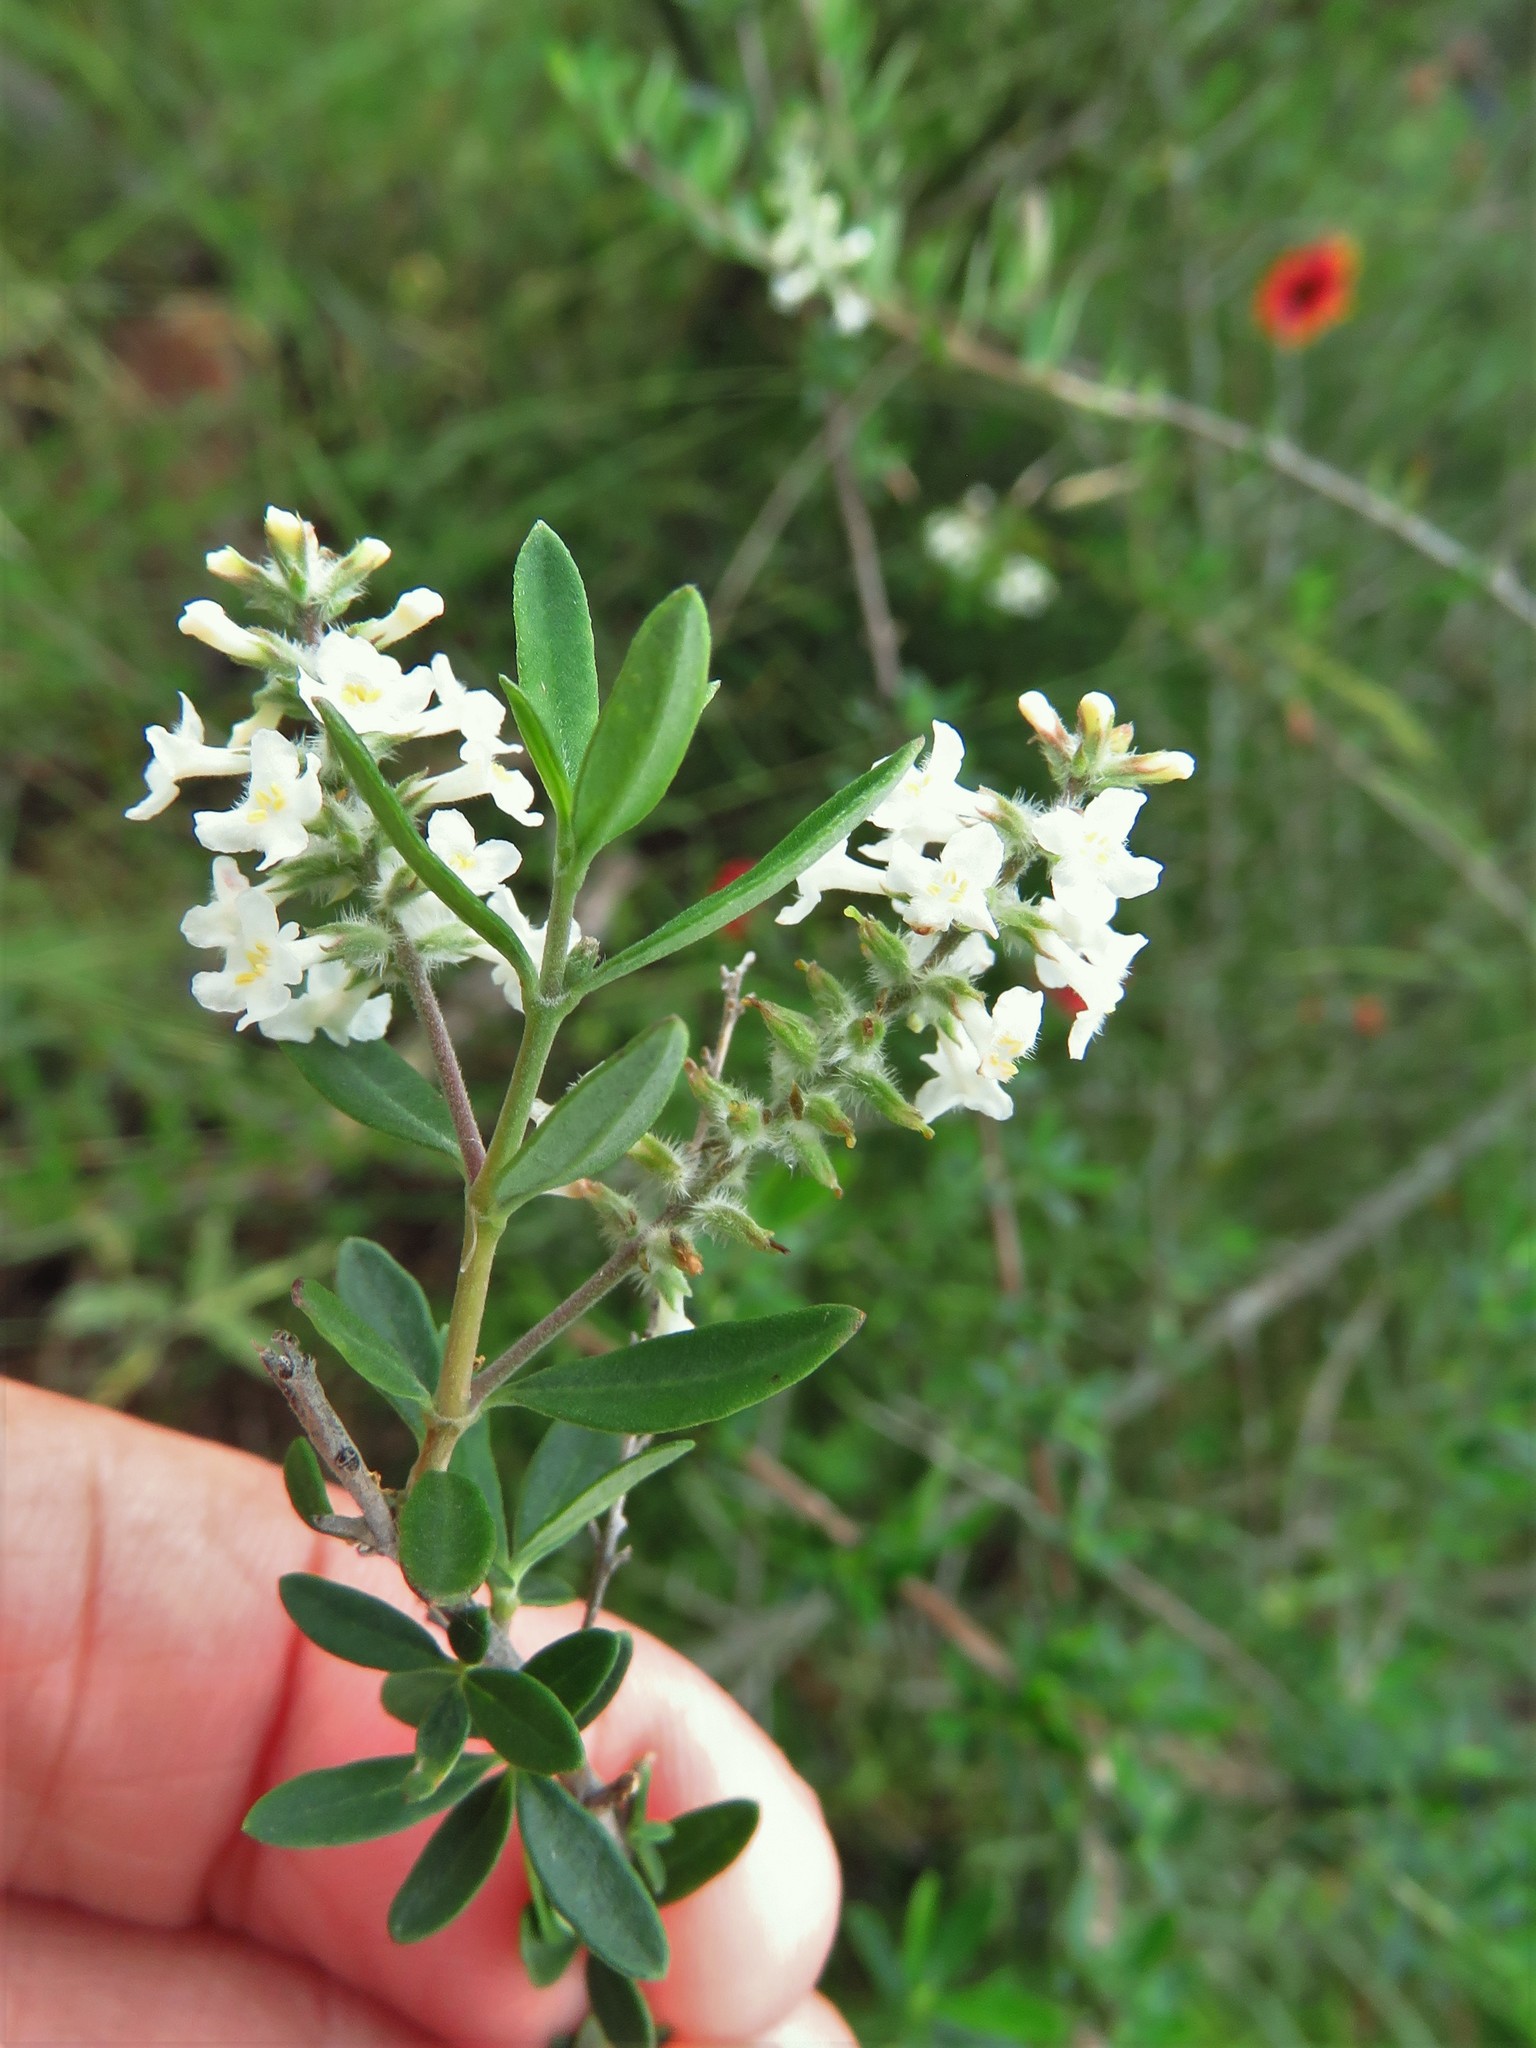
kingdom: Plantae
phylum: Tracheophyta
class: Magnoliopsida
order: Lamiales
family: Verbenaceae
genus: Aloysia
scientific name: Aloysia gratissima
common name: Common bee-brush
